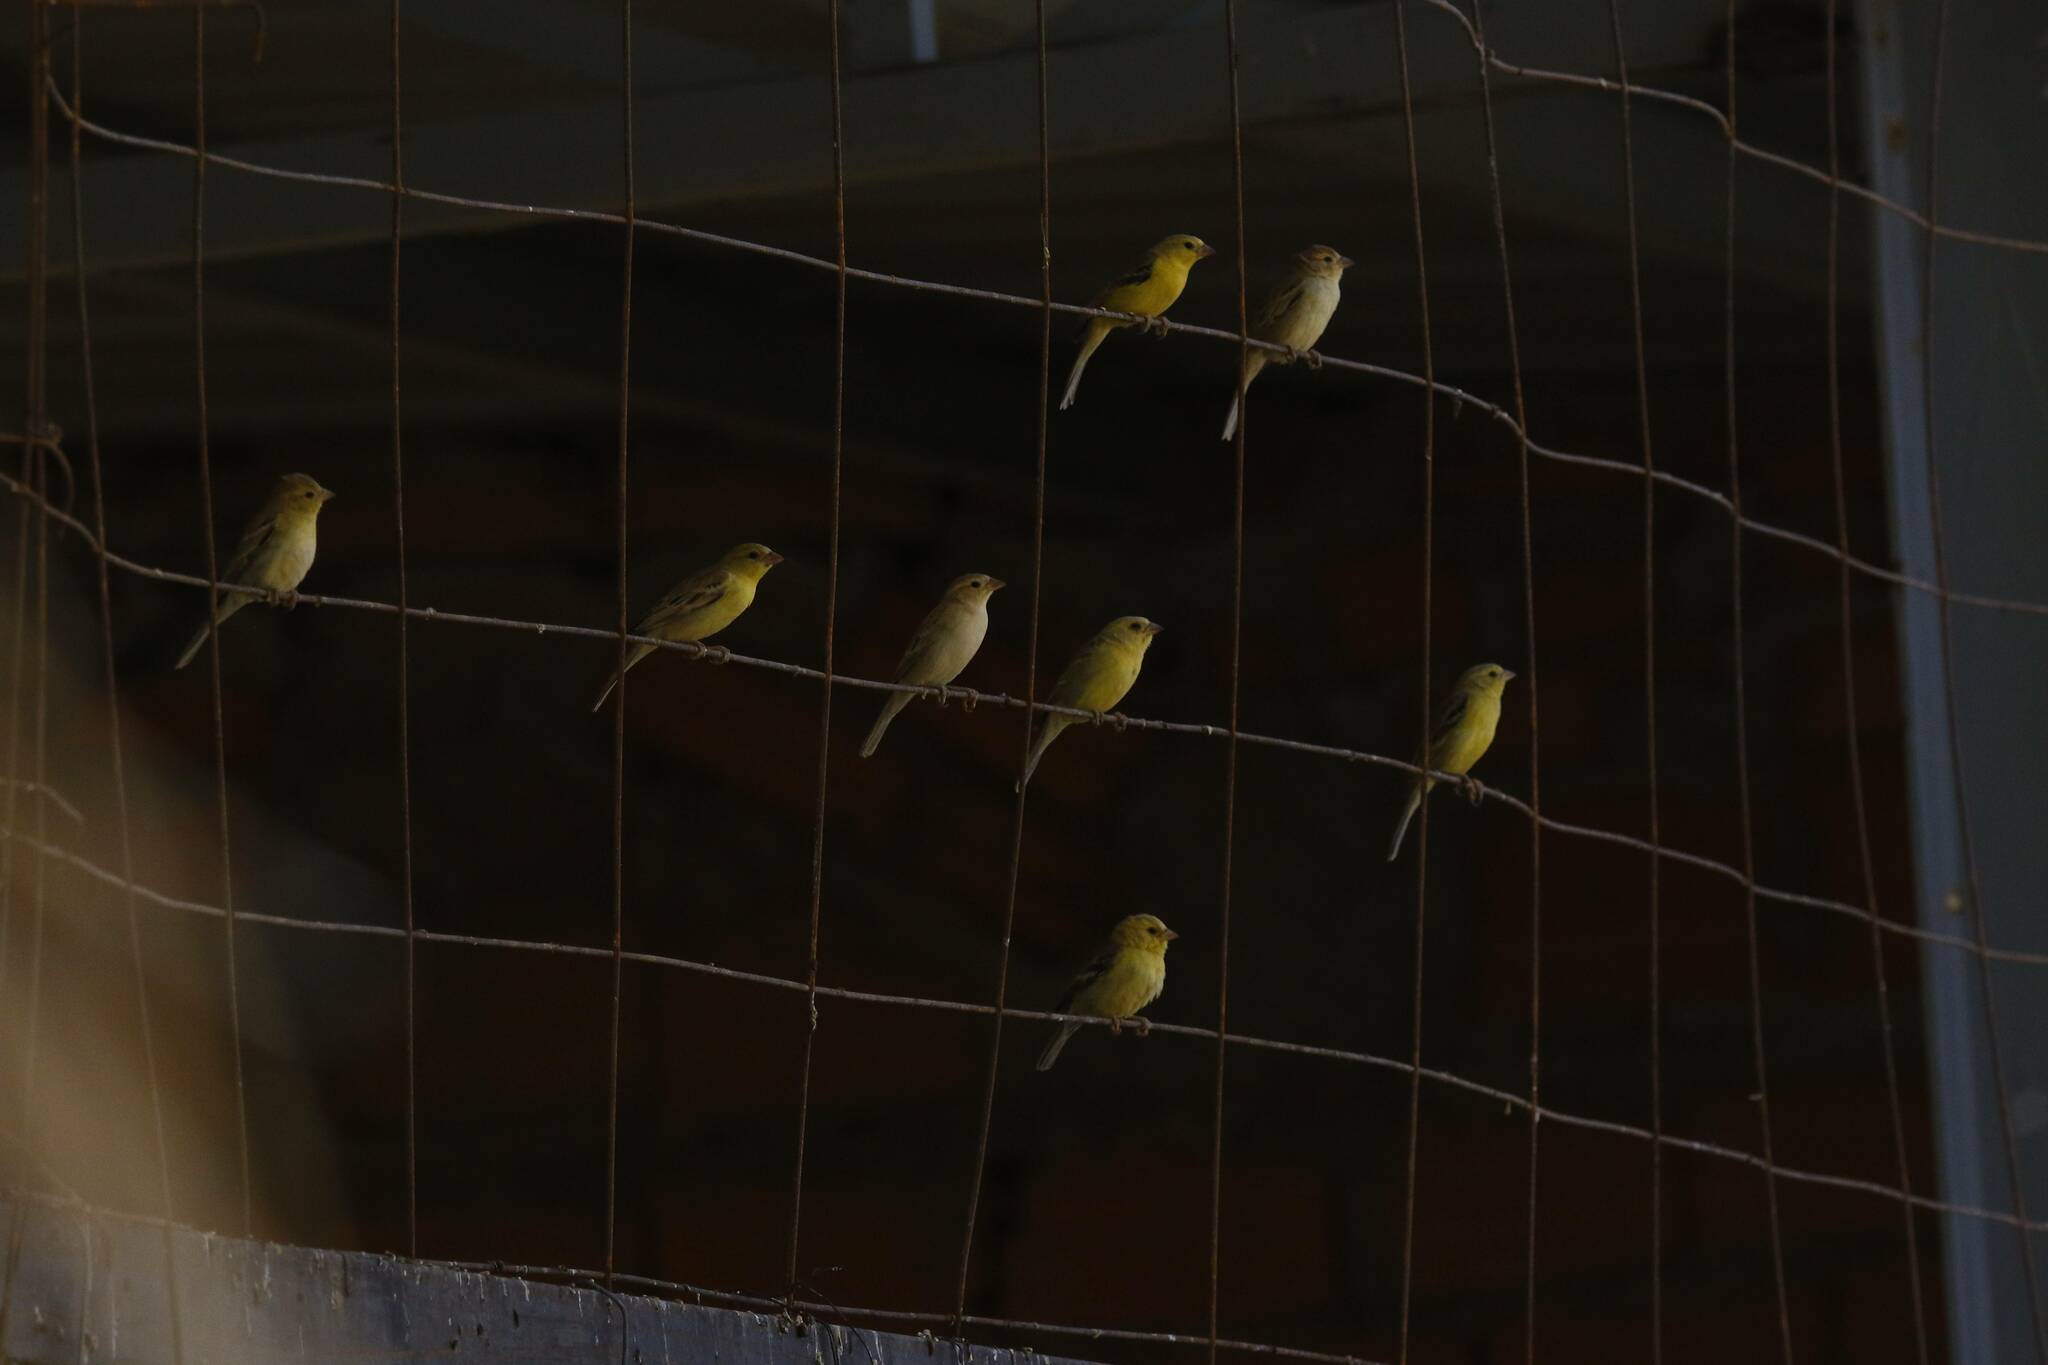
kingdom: Animalia
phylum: Chordata
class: Aves
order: Passeriformes
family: Passeridae
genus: Passer
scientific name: Passer luteus
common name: Sudan golden sparrow
